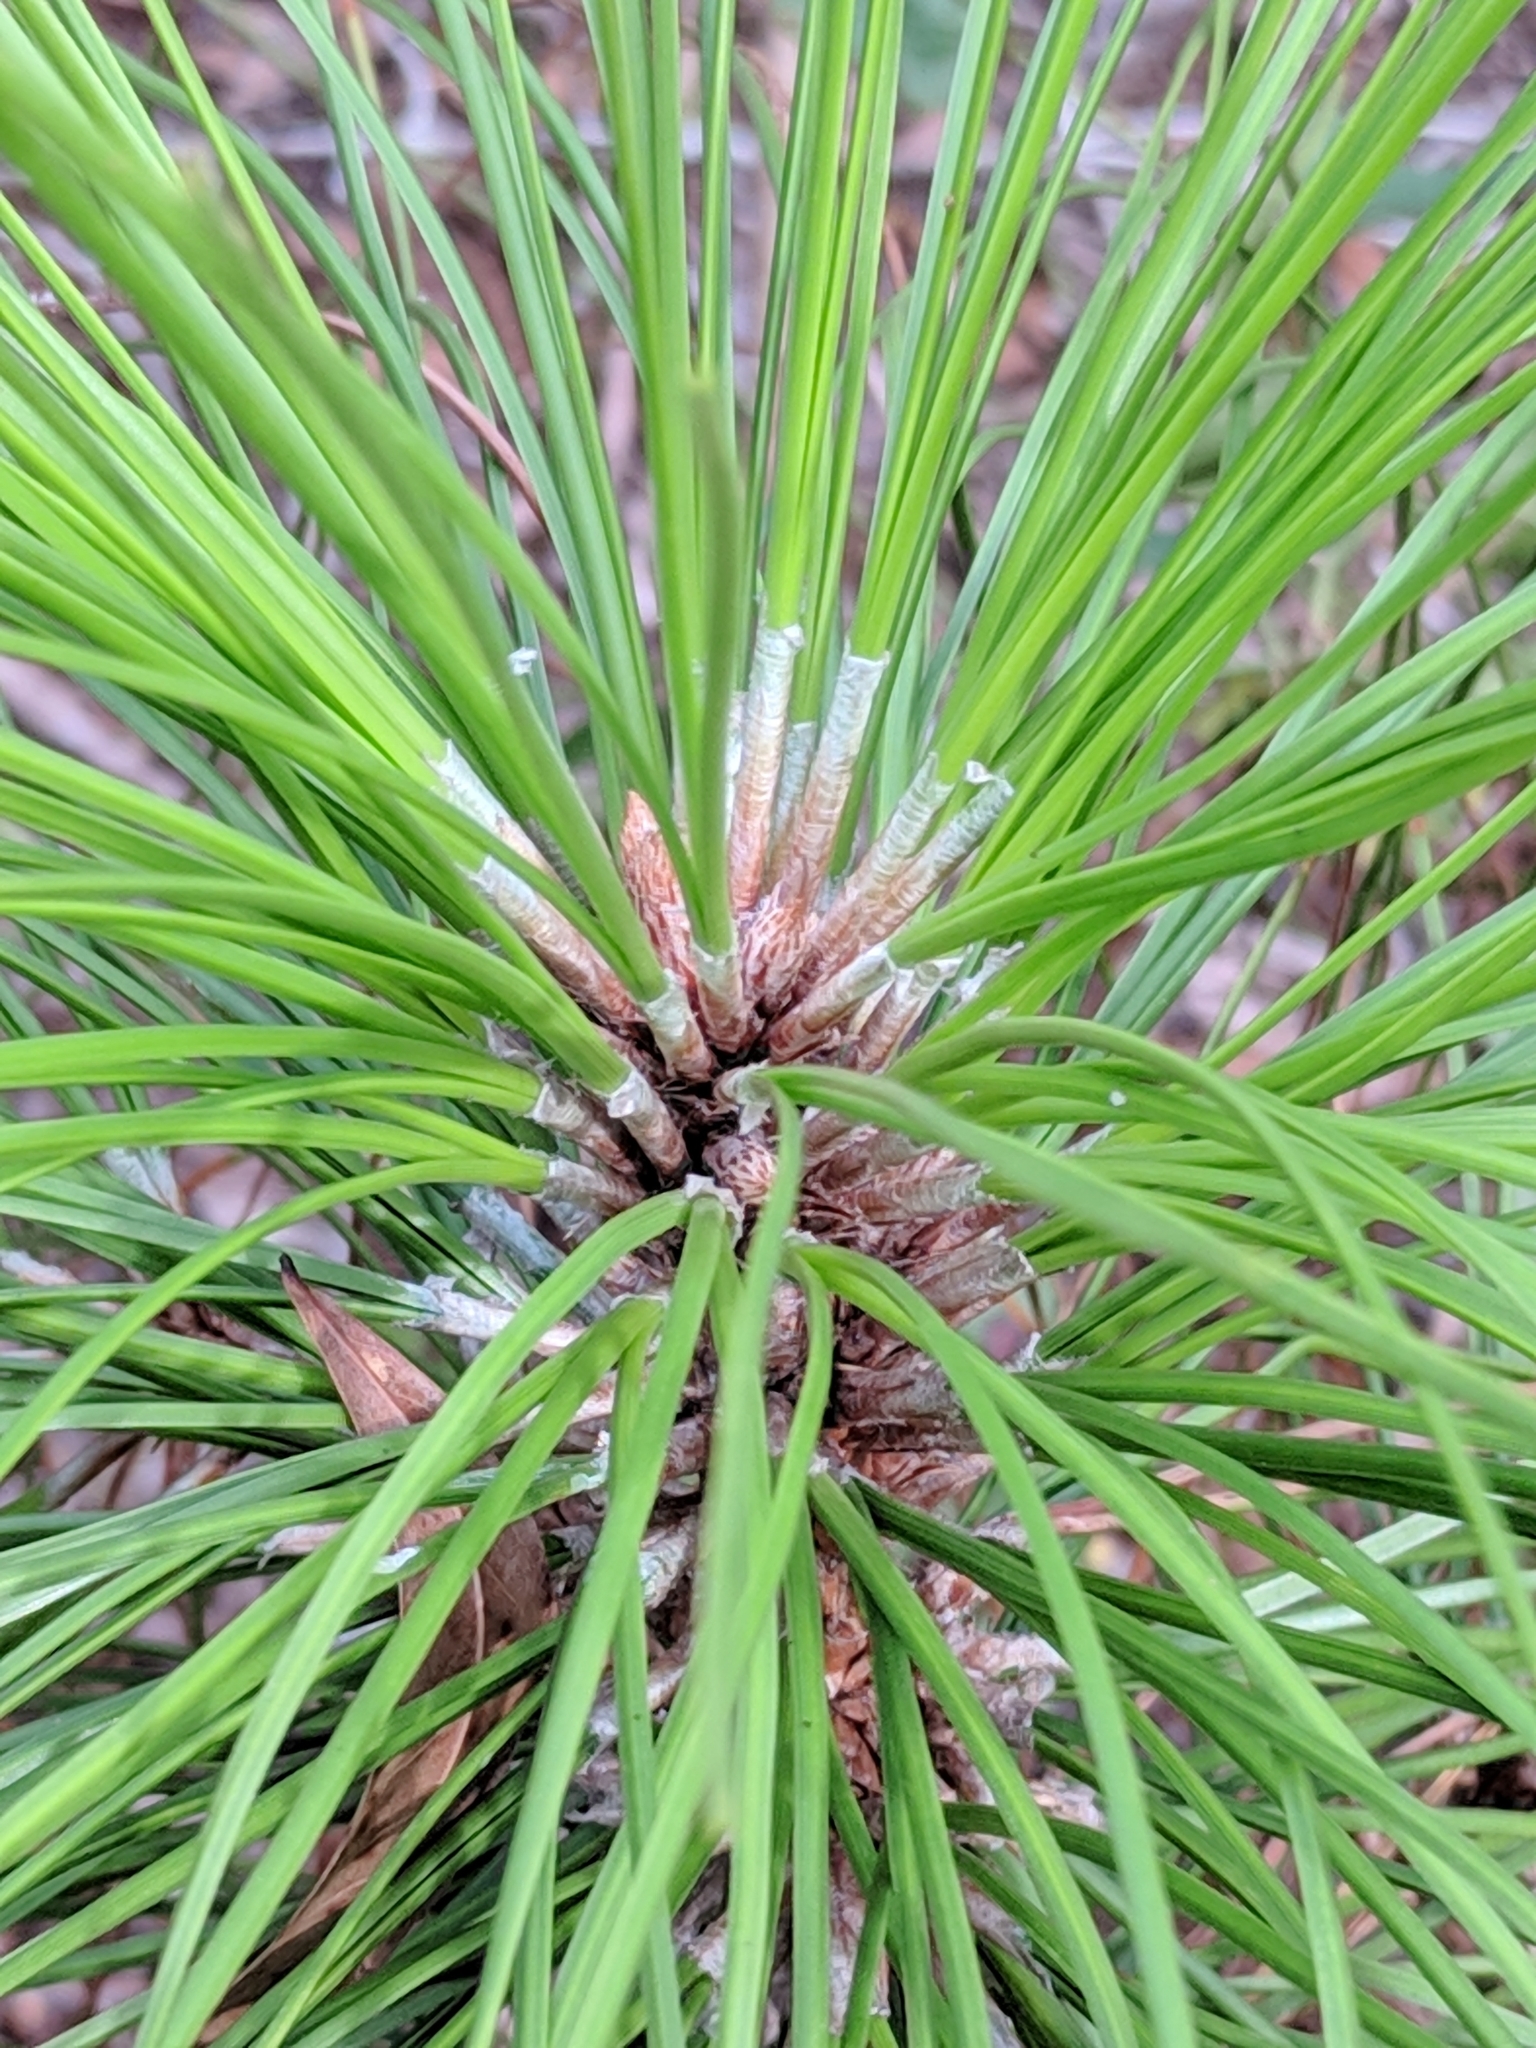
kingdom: Plantae
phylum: Tracheophyta
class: Pinopsida
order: Pinales
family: Pinaceae
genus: Pinus
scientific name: Pinus elliottii
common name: Slash pine
